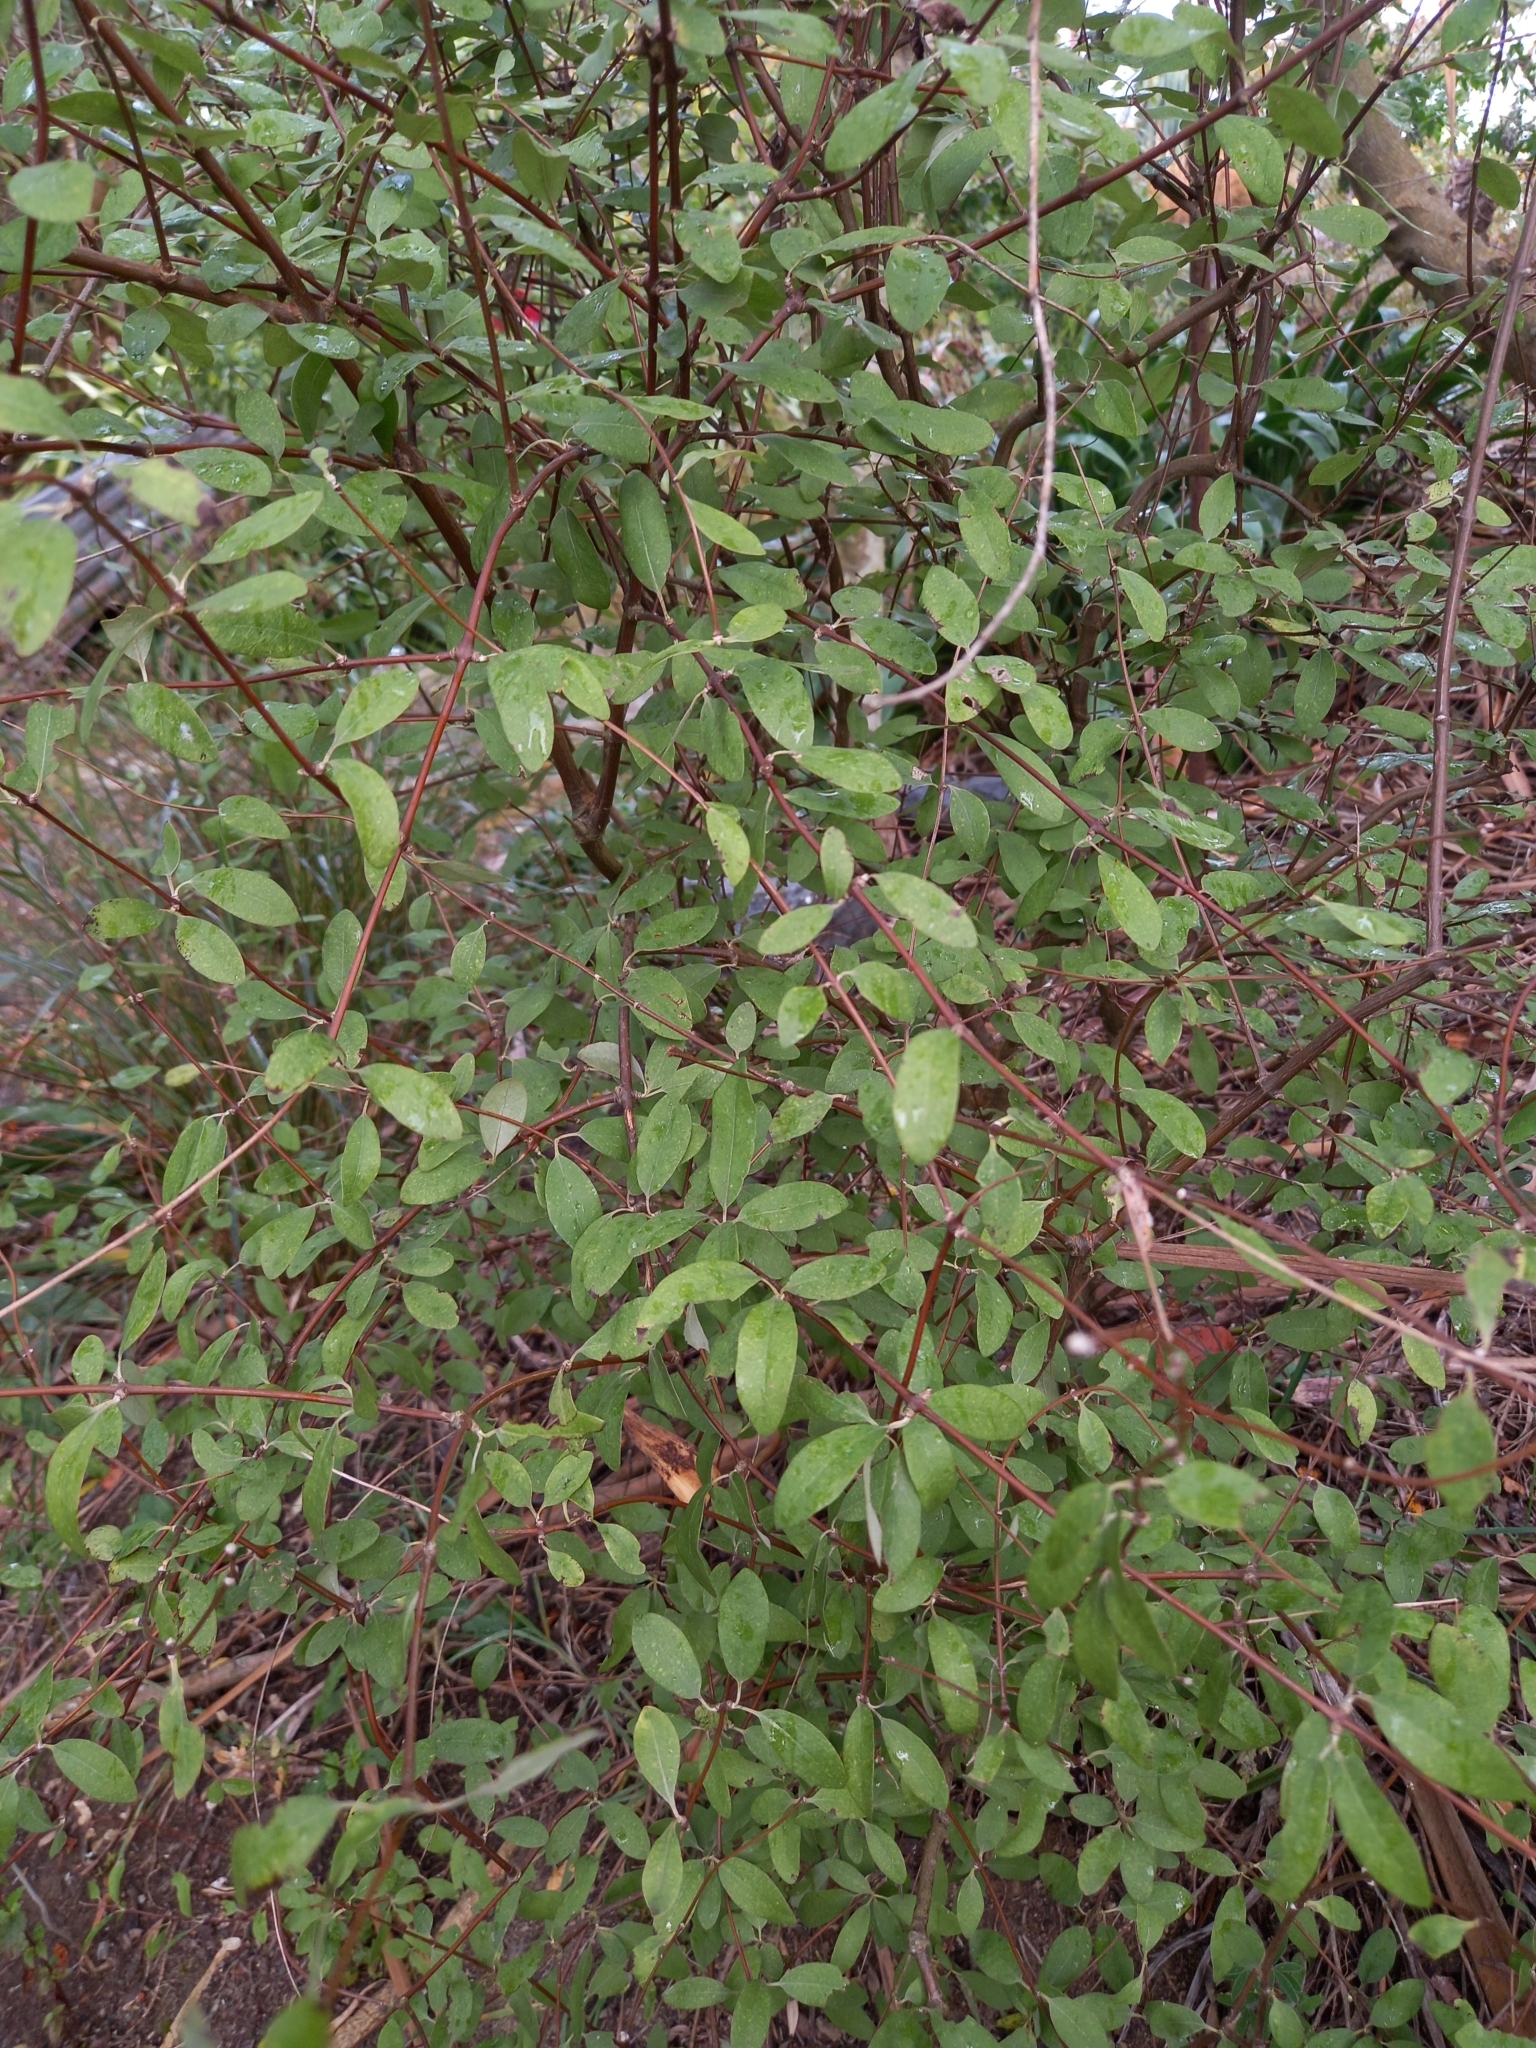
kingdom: Plantae
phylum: Tracheophyta
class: Magnoliopsida
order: Asterales
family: Asteraceae
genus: Olearia
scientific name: Olearia hectorii
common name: Deciduous tree daisy
